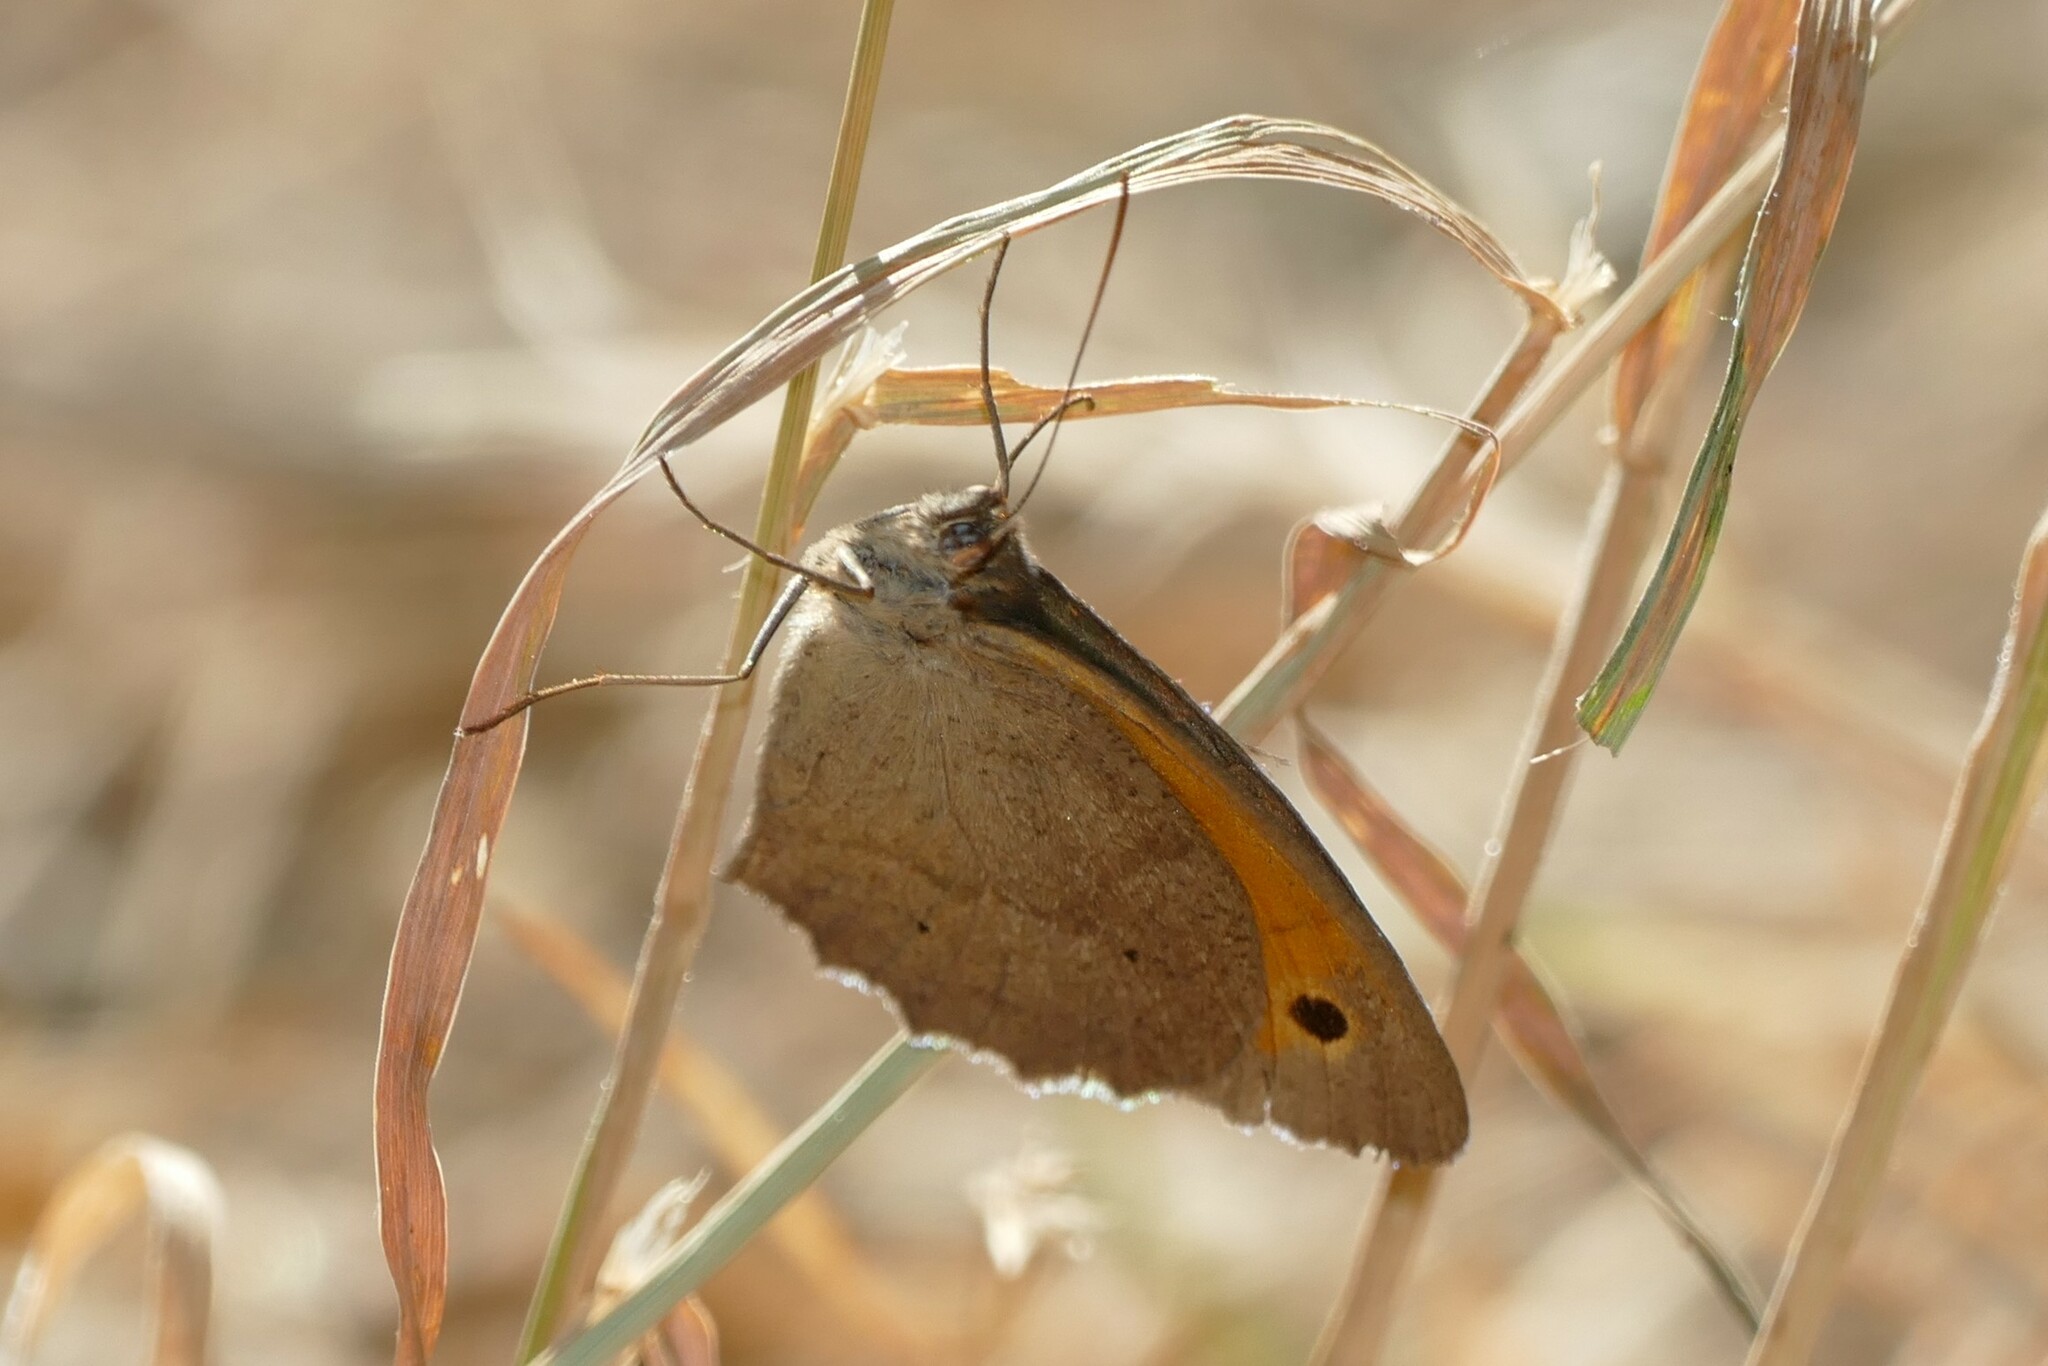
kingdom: Animalia
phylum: Arthropoda
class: Insecta
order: Lepidoptera
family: Nymphalidae
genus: Maniola
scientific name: Maniola jurtina
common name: Meadow brown
